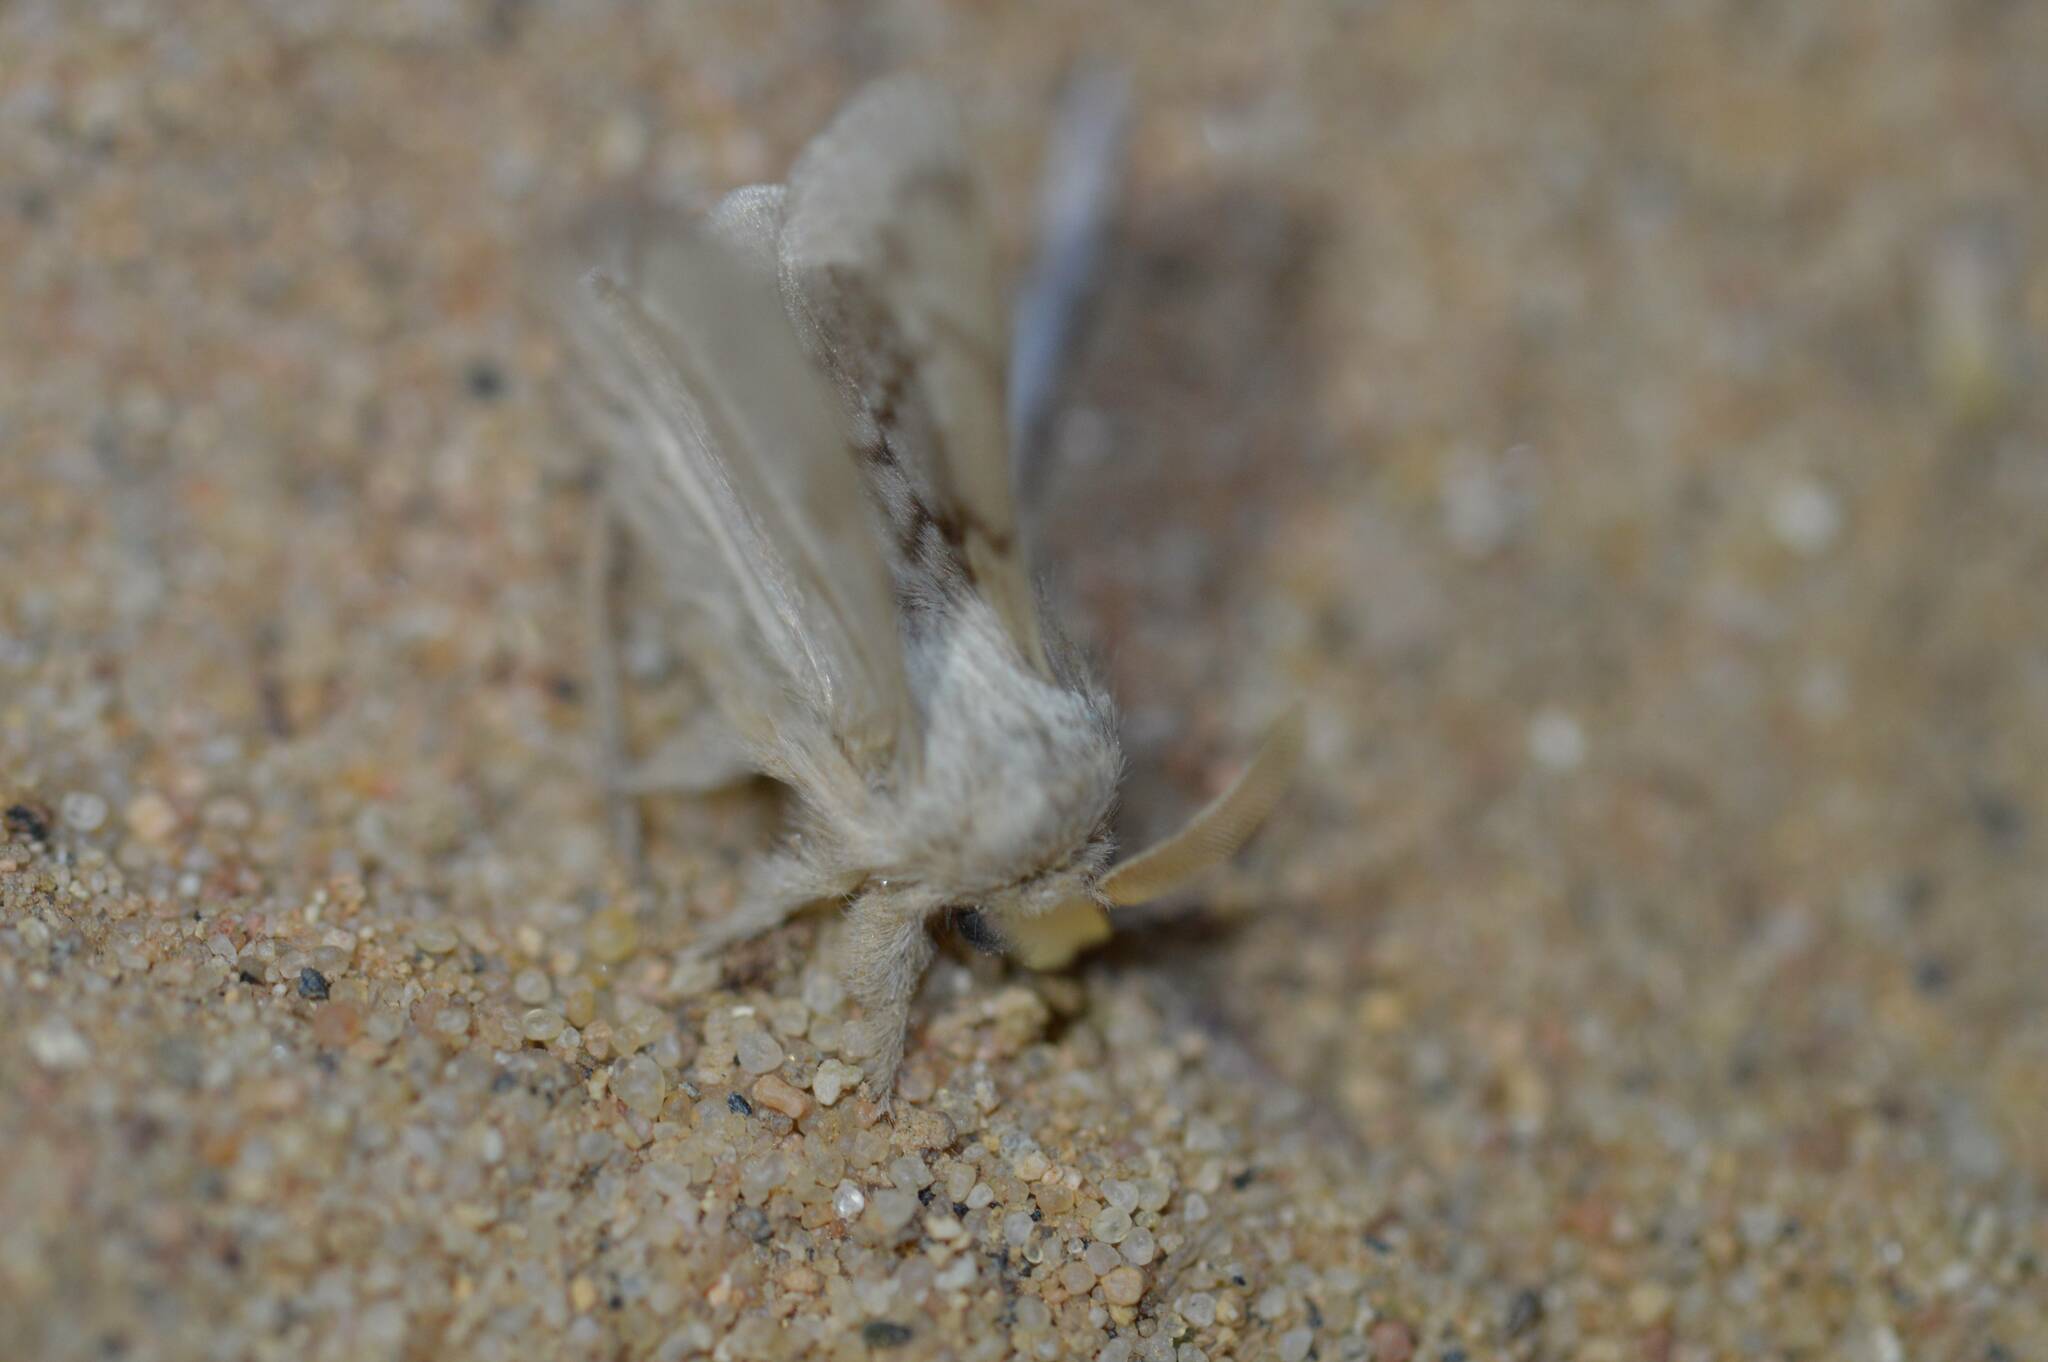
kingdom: Animalia
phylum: Arthropoda
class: Insecta
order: Lepidoptera
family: Lasiocampidae
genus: Anadiasa
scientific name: Anadiasa obsoleta
